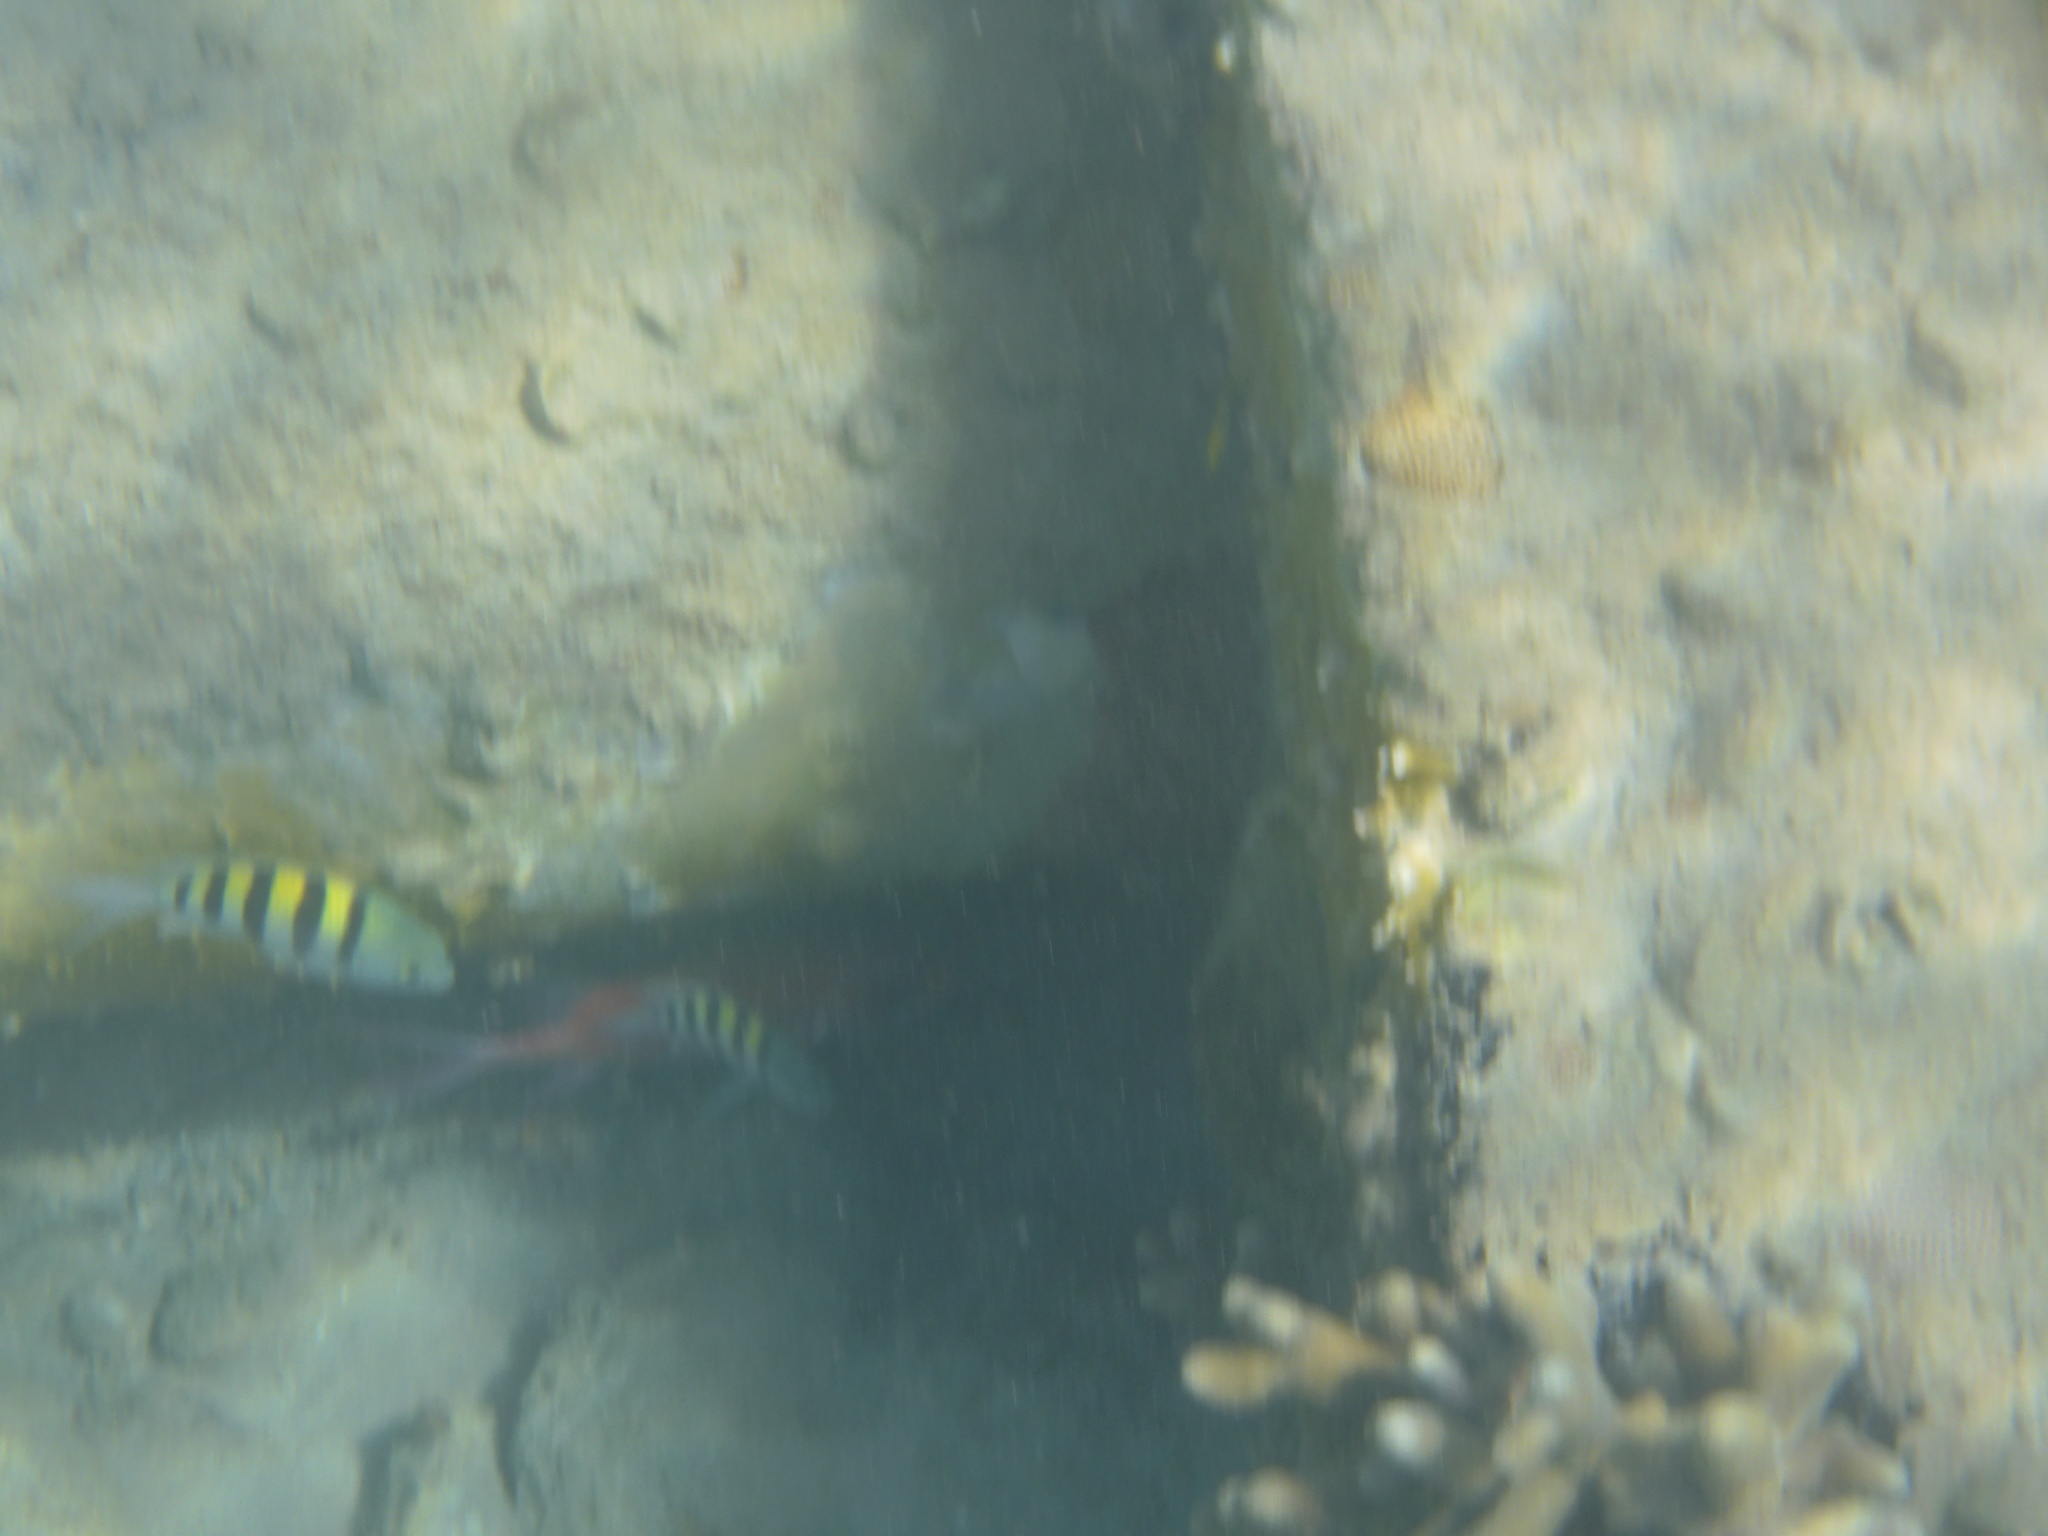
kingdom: Animalia
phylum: Chordata
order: Perciformes
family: Pomacentridae
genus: Abudefduf
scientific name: Abudefduf saxatilis
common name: Sergeant major
